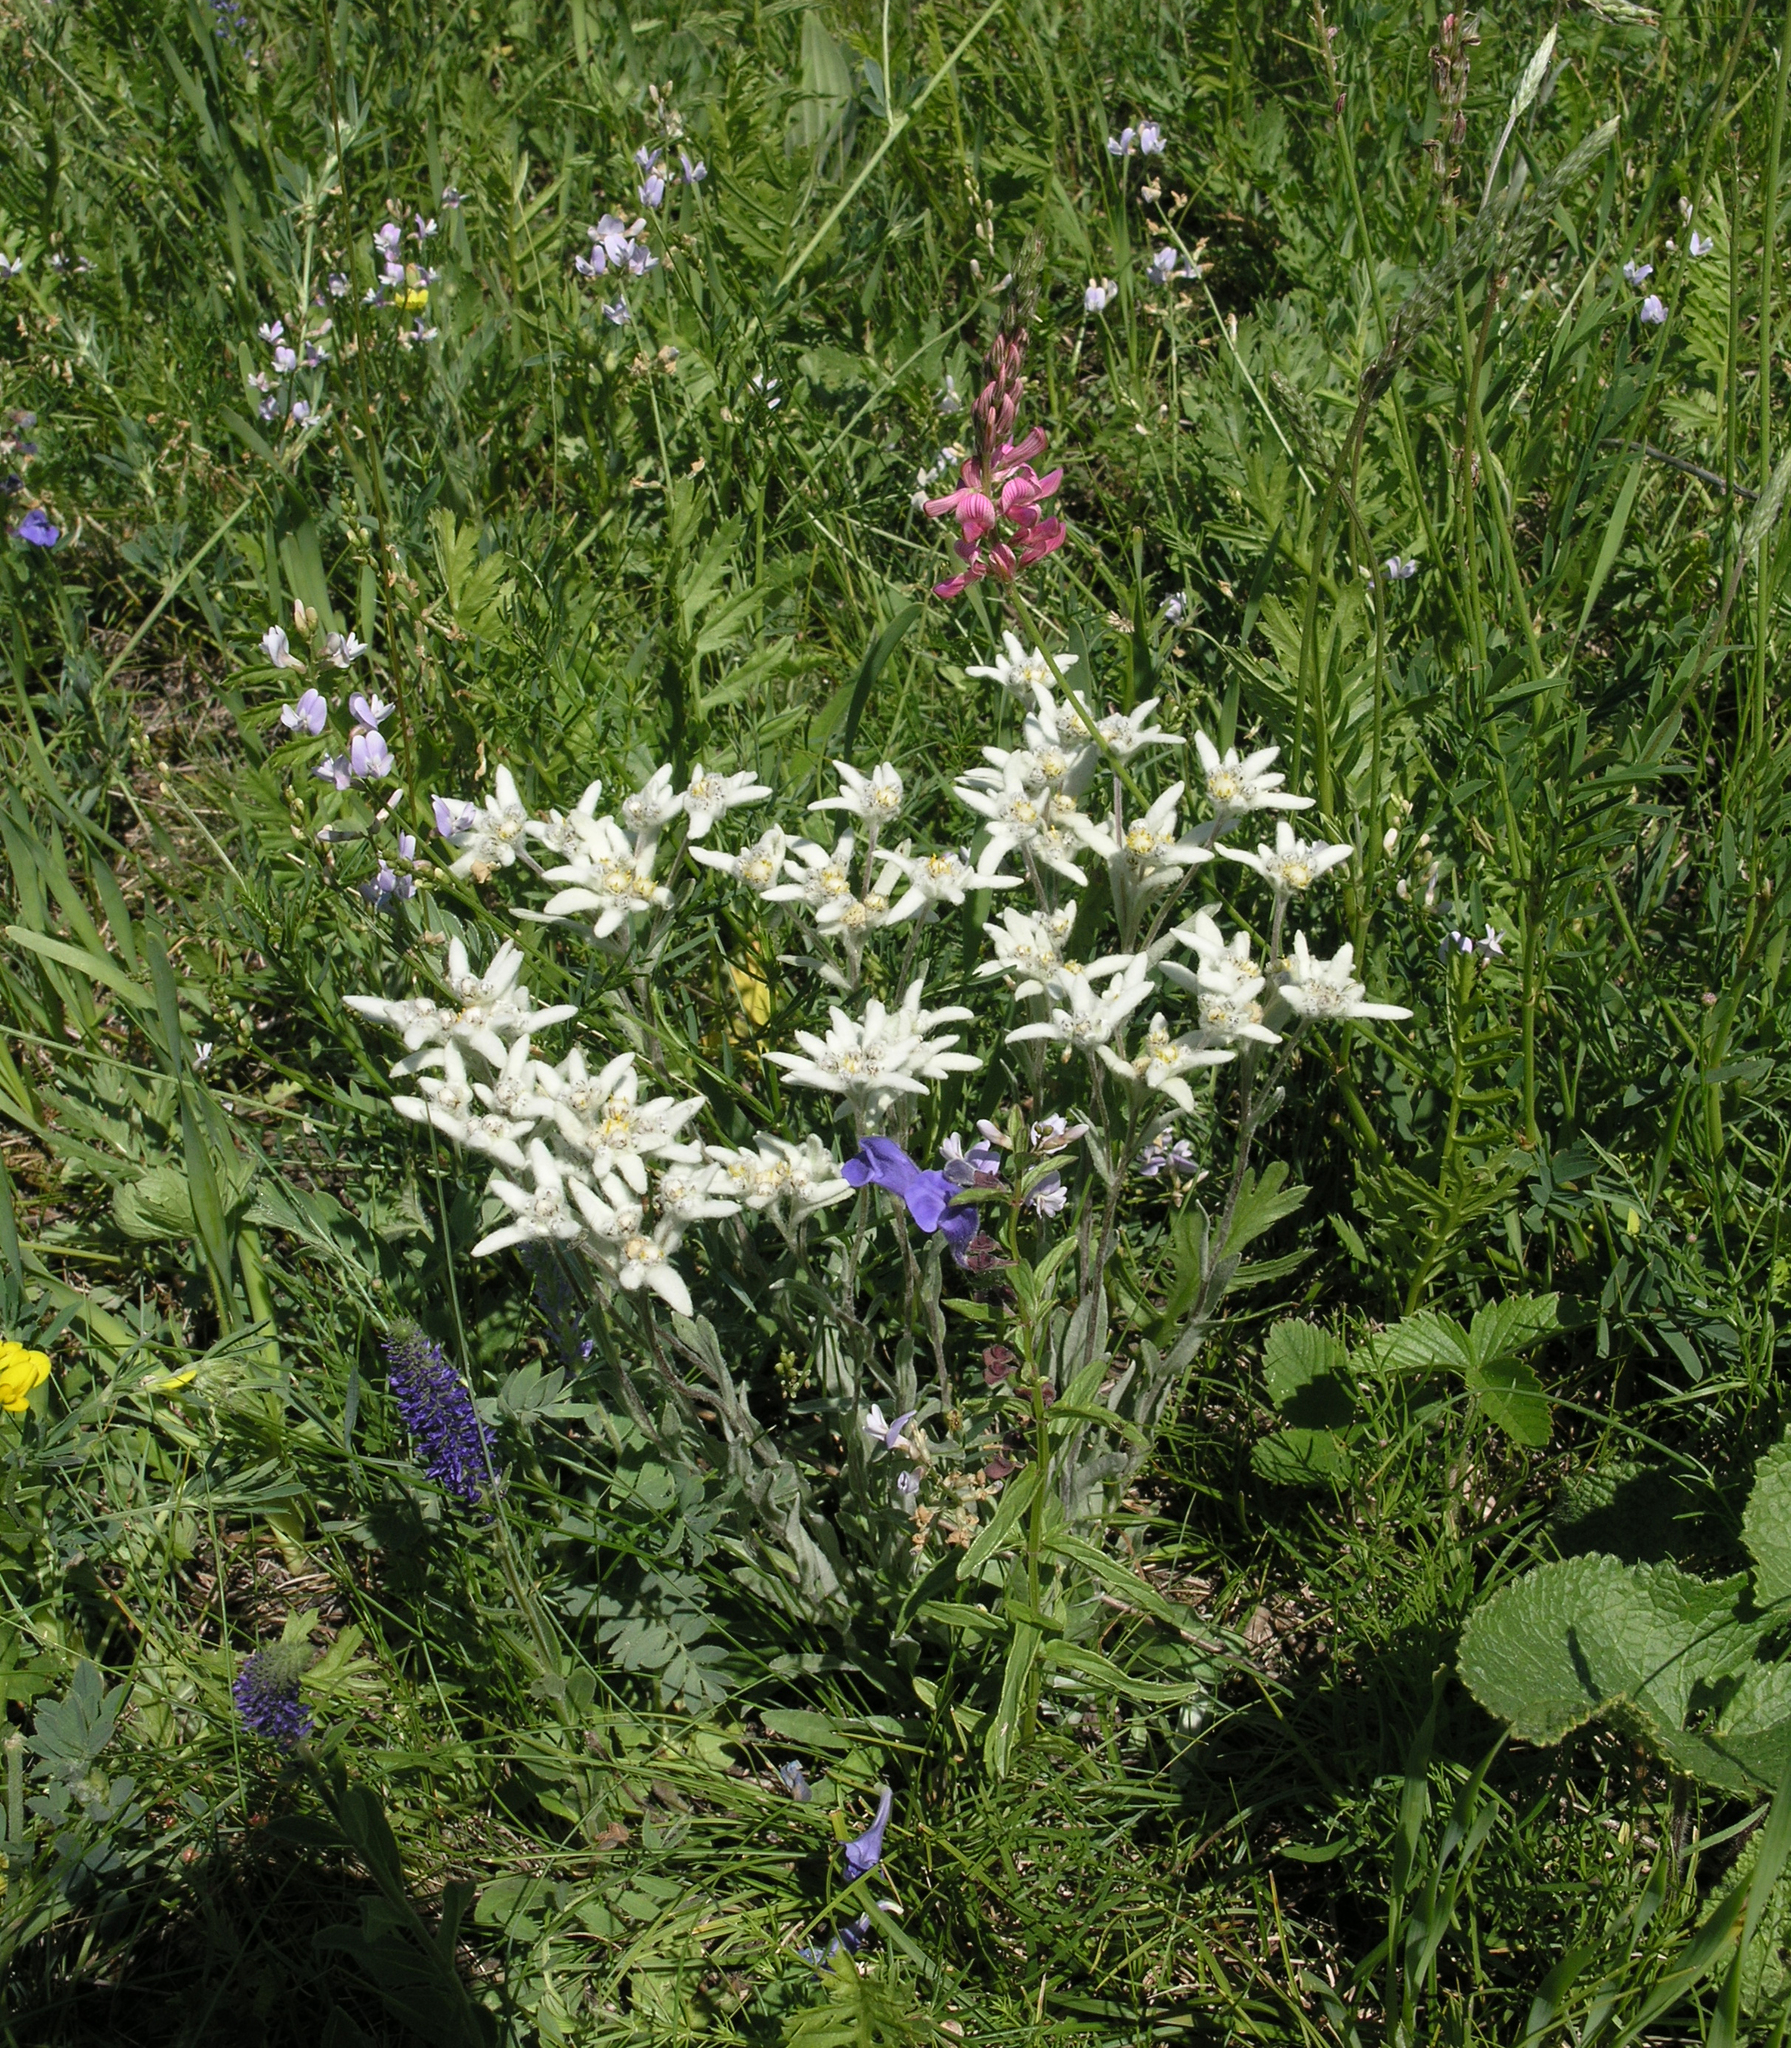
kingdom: Plantae
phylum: Tracheophyta
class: Magnoliopsida
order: Asterales
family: Asteraceae
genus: Leontopodium
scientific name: Leontopodium leontopodinum
